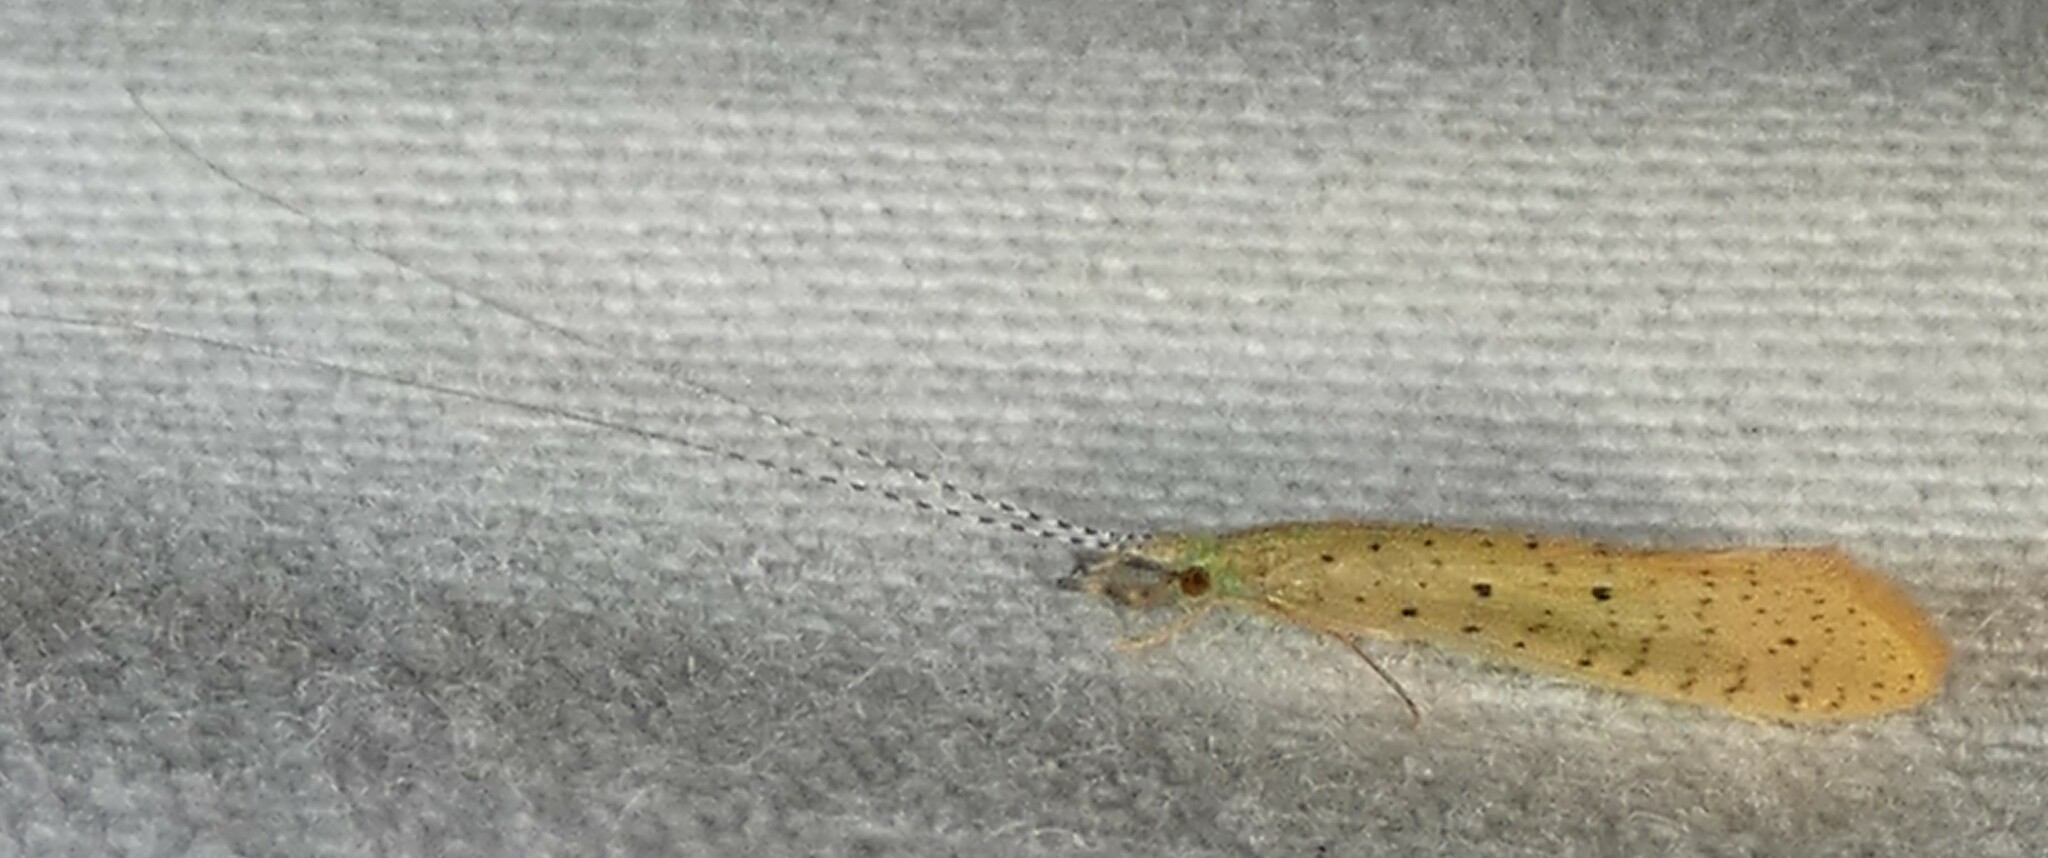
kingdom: Animalia
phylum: Arthropoda
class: Insecta
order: Trichoptera
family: Leptoceridae
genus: Nectopsyche
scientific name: Nectopsyche pavida
